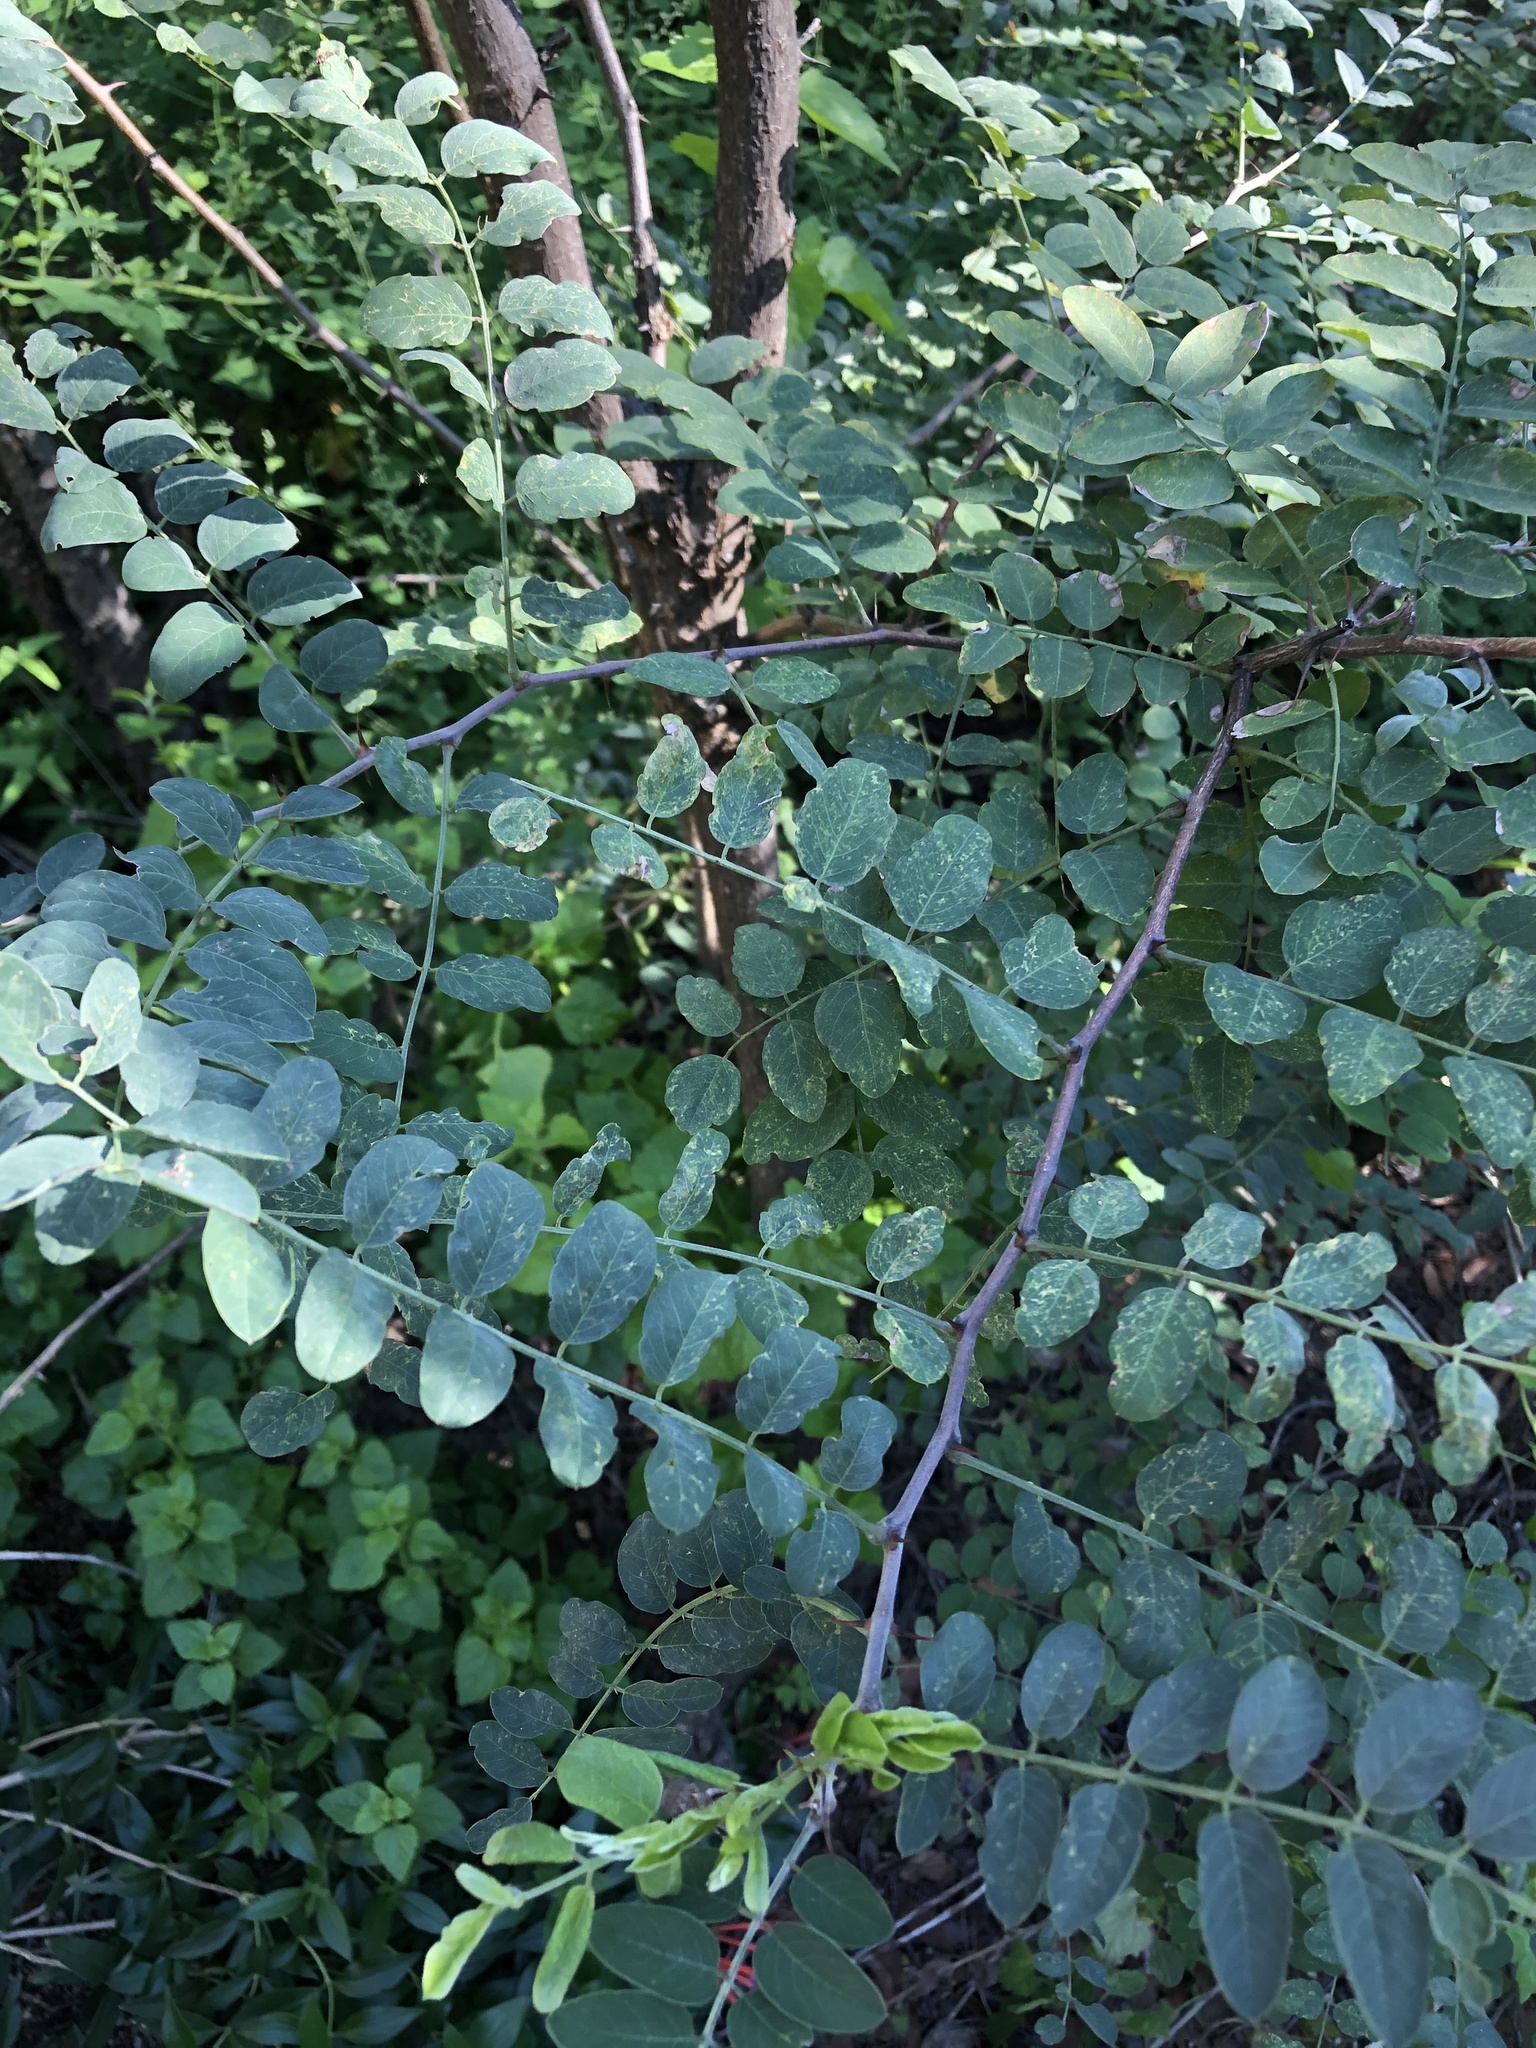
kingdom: Plantae
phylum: Tracheophyta
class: Magnoliopsida
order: Fabales
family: Fabaceae
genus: Robinia
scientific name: Robinia neomexicana
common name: New mexico locust
